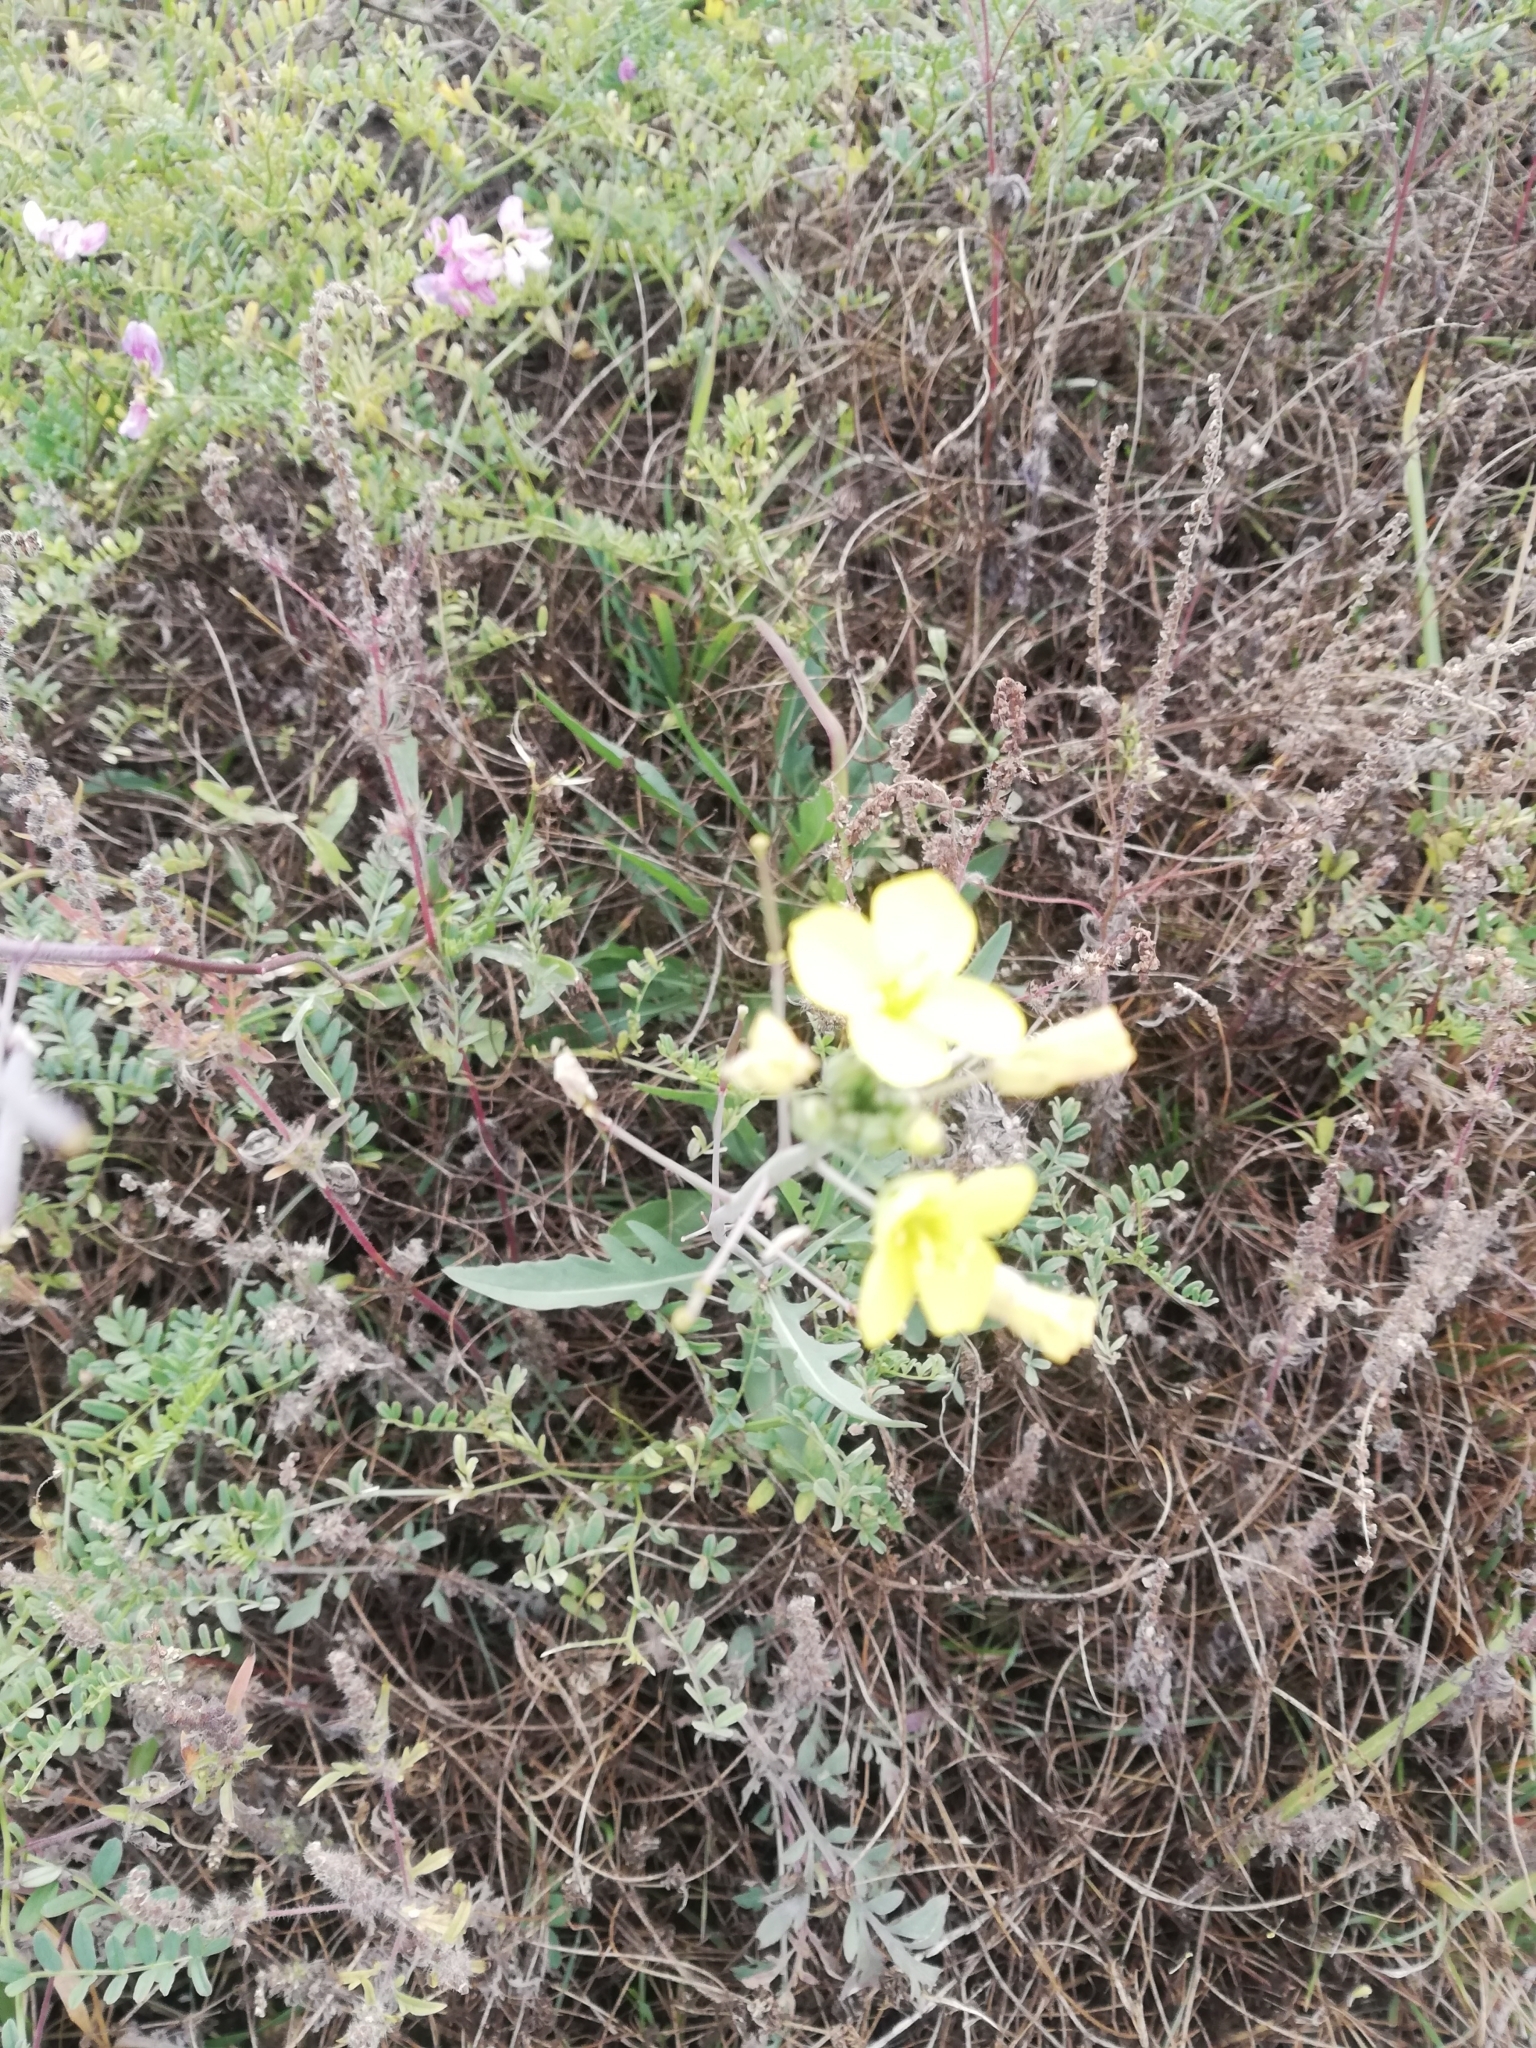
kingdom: Plantae
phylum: Tracheophyta
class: Magnoliopsida
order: Brassicales
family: Brassicaceae
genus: Diplotaxis
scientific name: Diplotaxis tenuifolia
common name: Perennial wall-rocket
